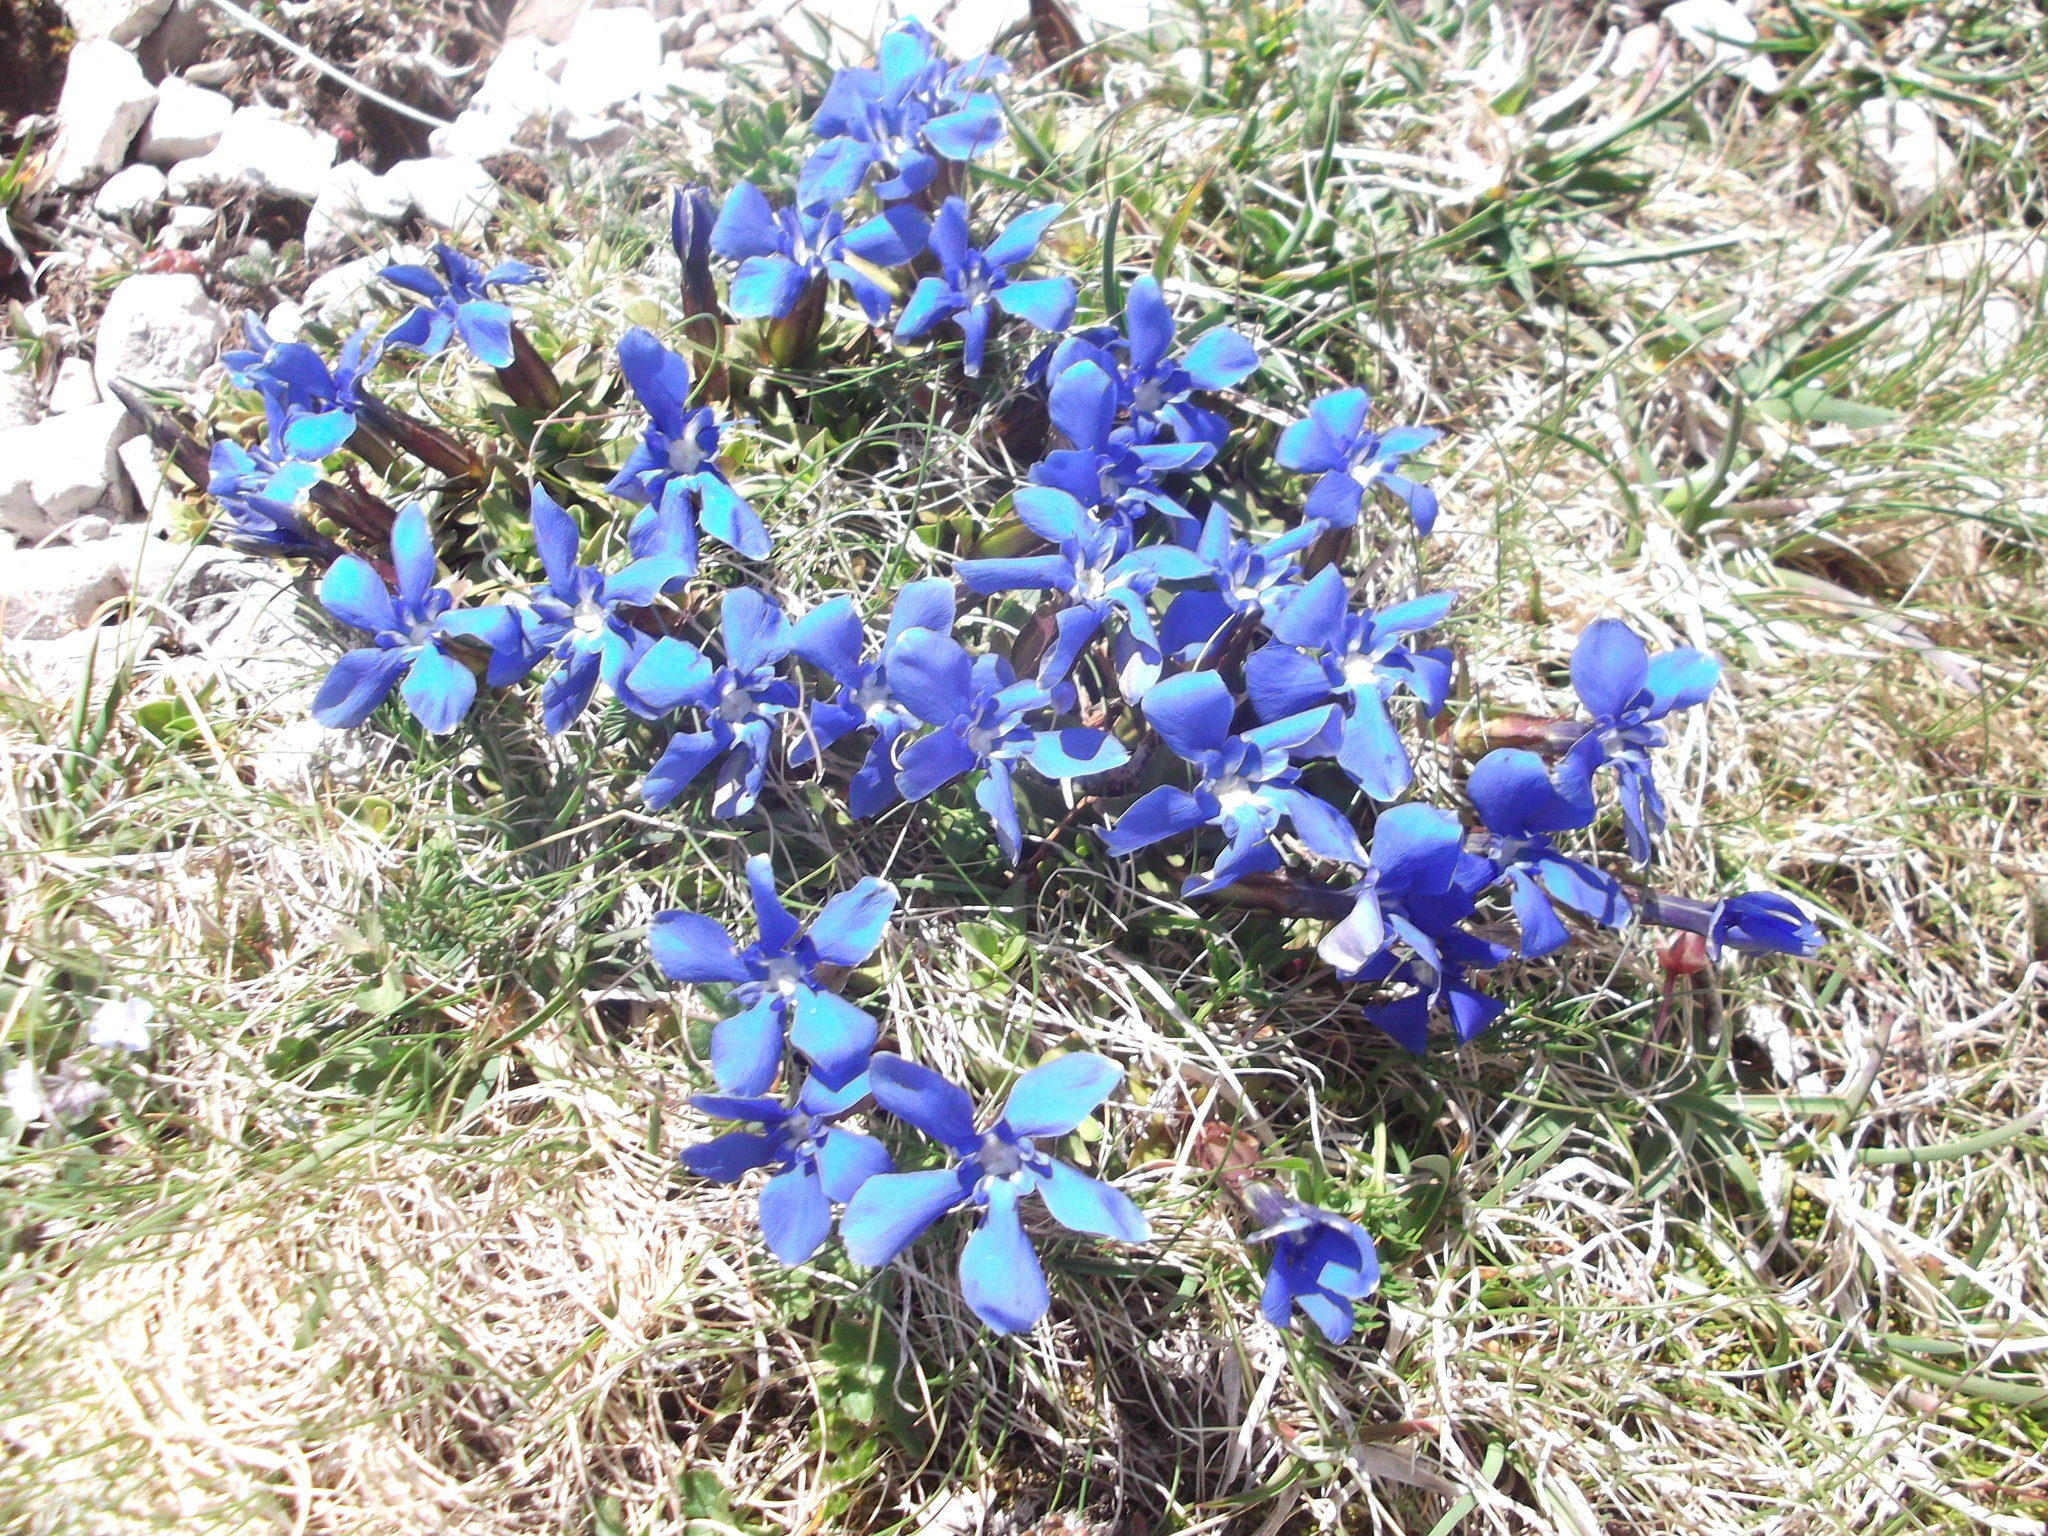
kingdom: Plantae
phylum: Tracheophyta
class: Magnoliopsida
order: Gentianales
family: Gentianaceae
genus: Gentiana
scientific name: Gentiana verna
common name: Spring gentian
